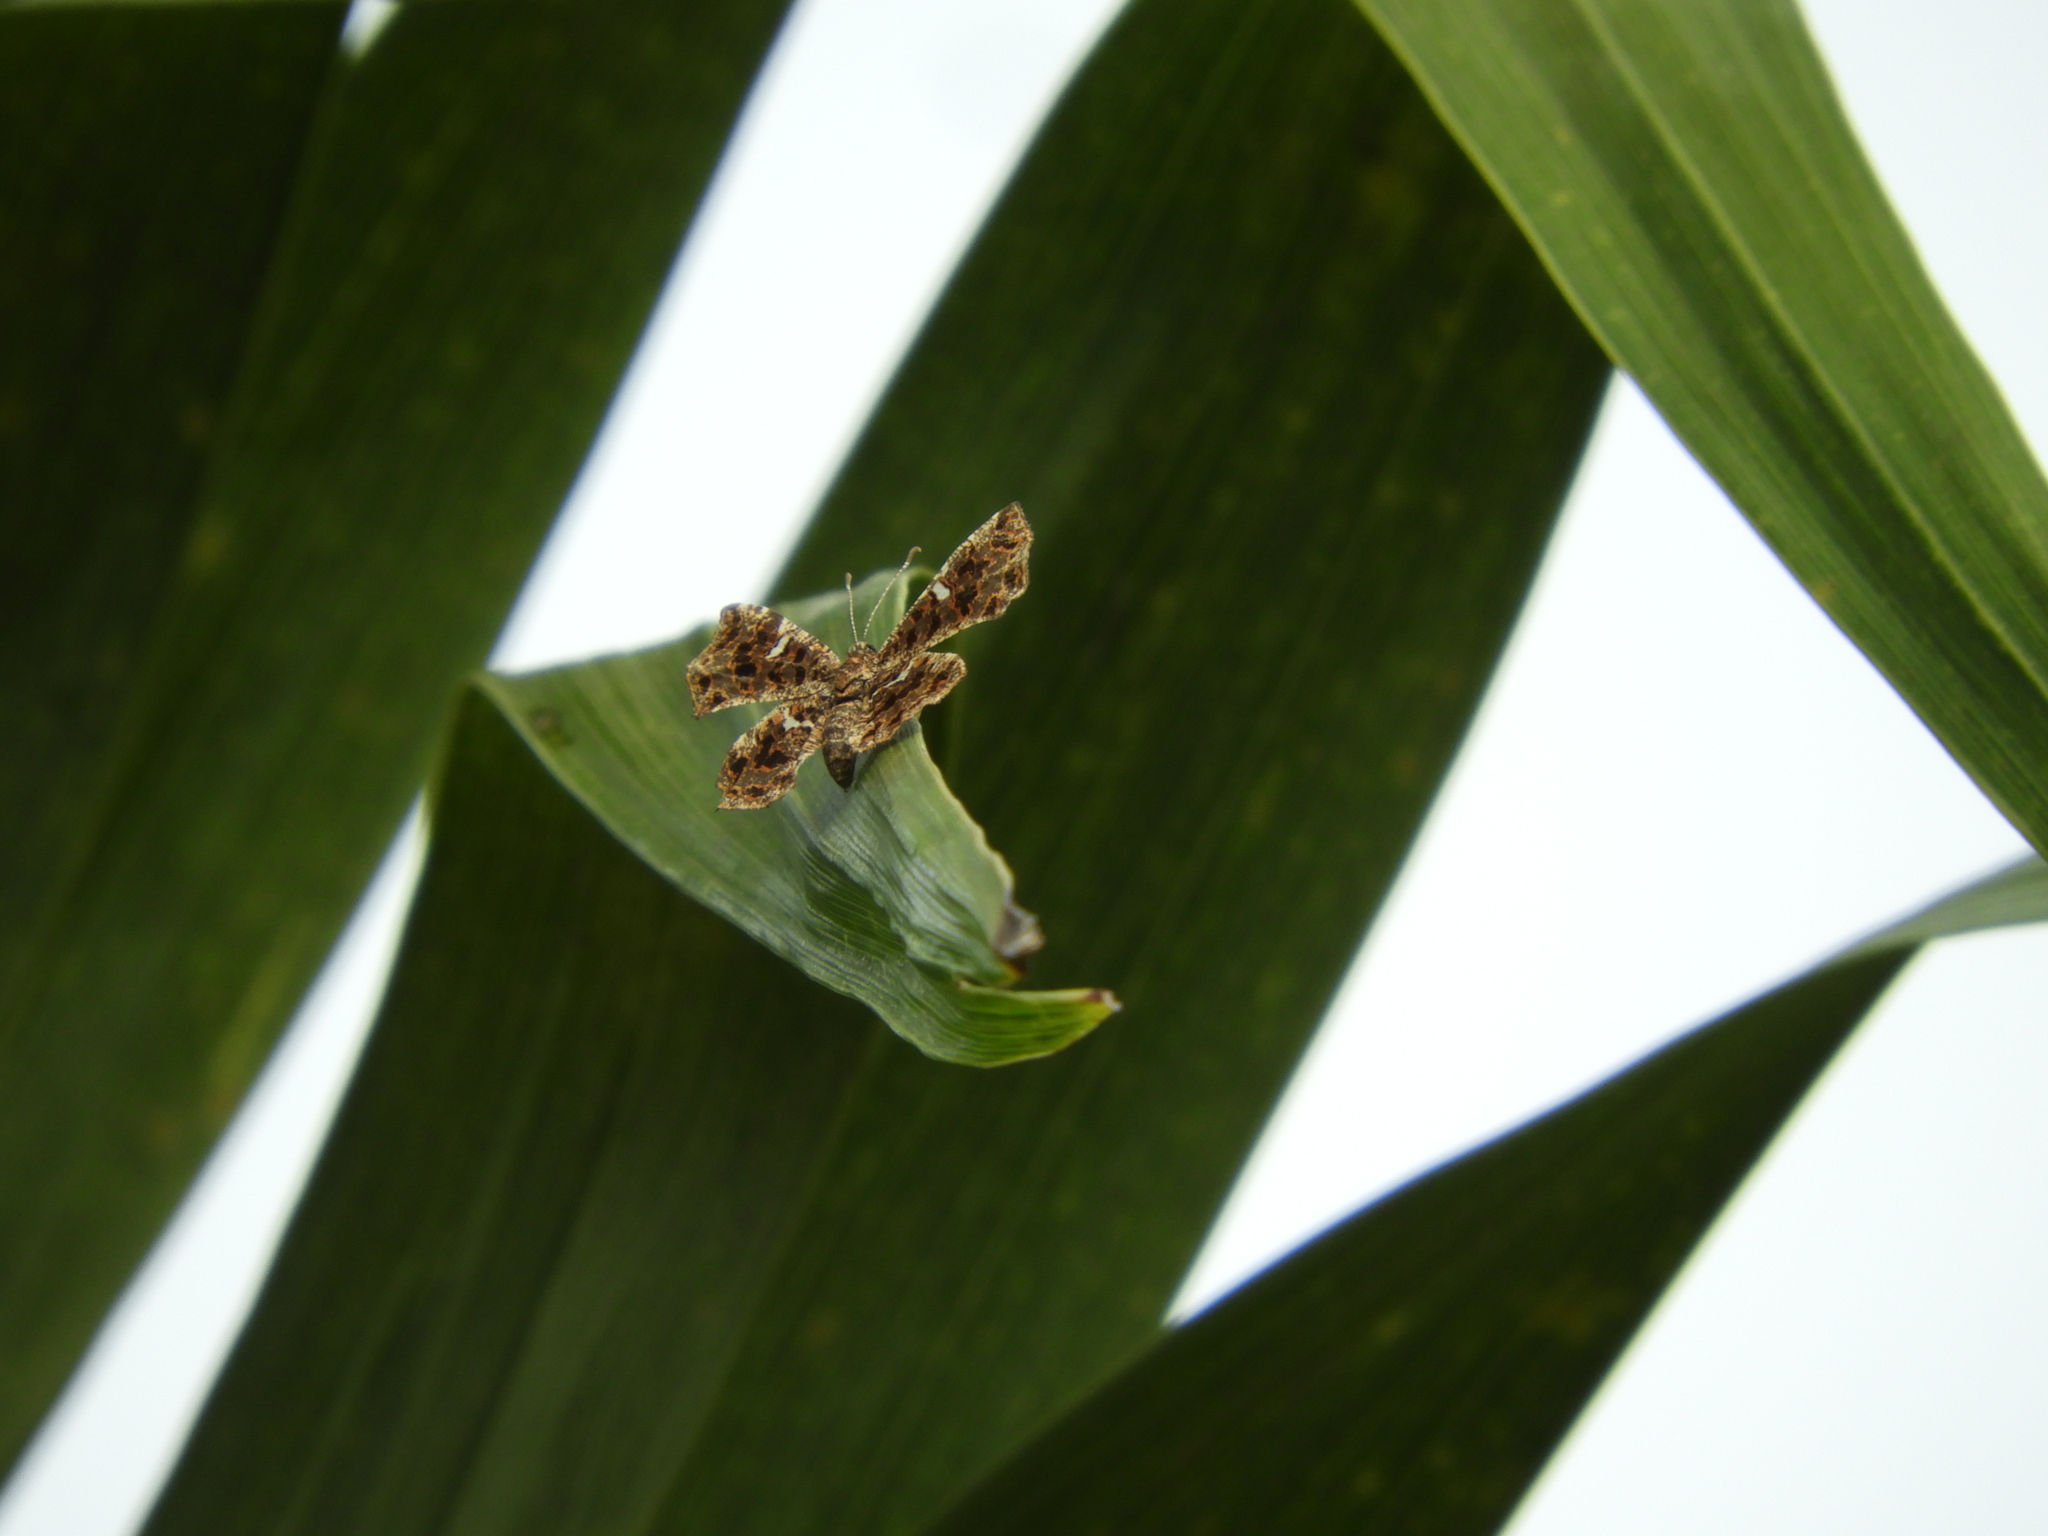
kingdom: Animalia
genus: Calydna
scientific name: Calydna sturnula
